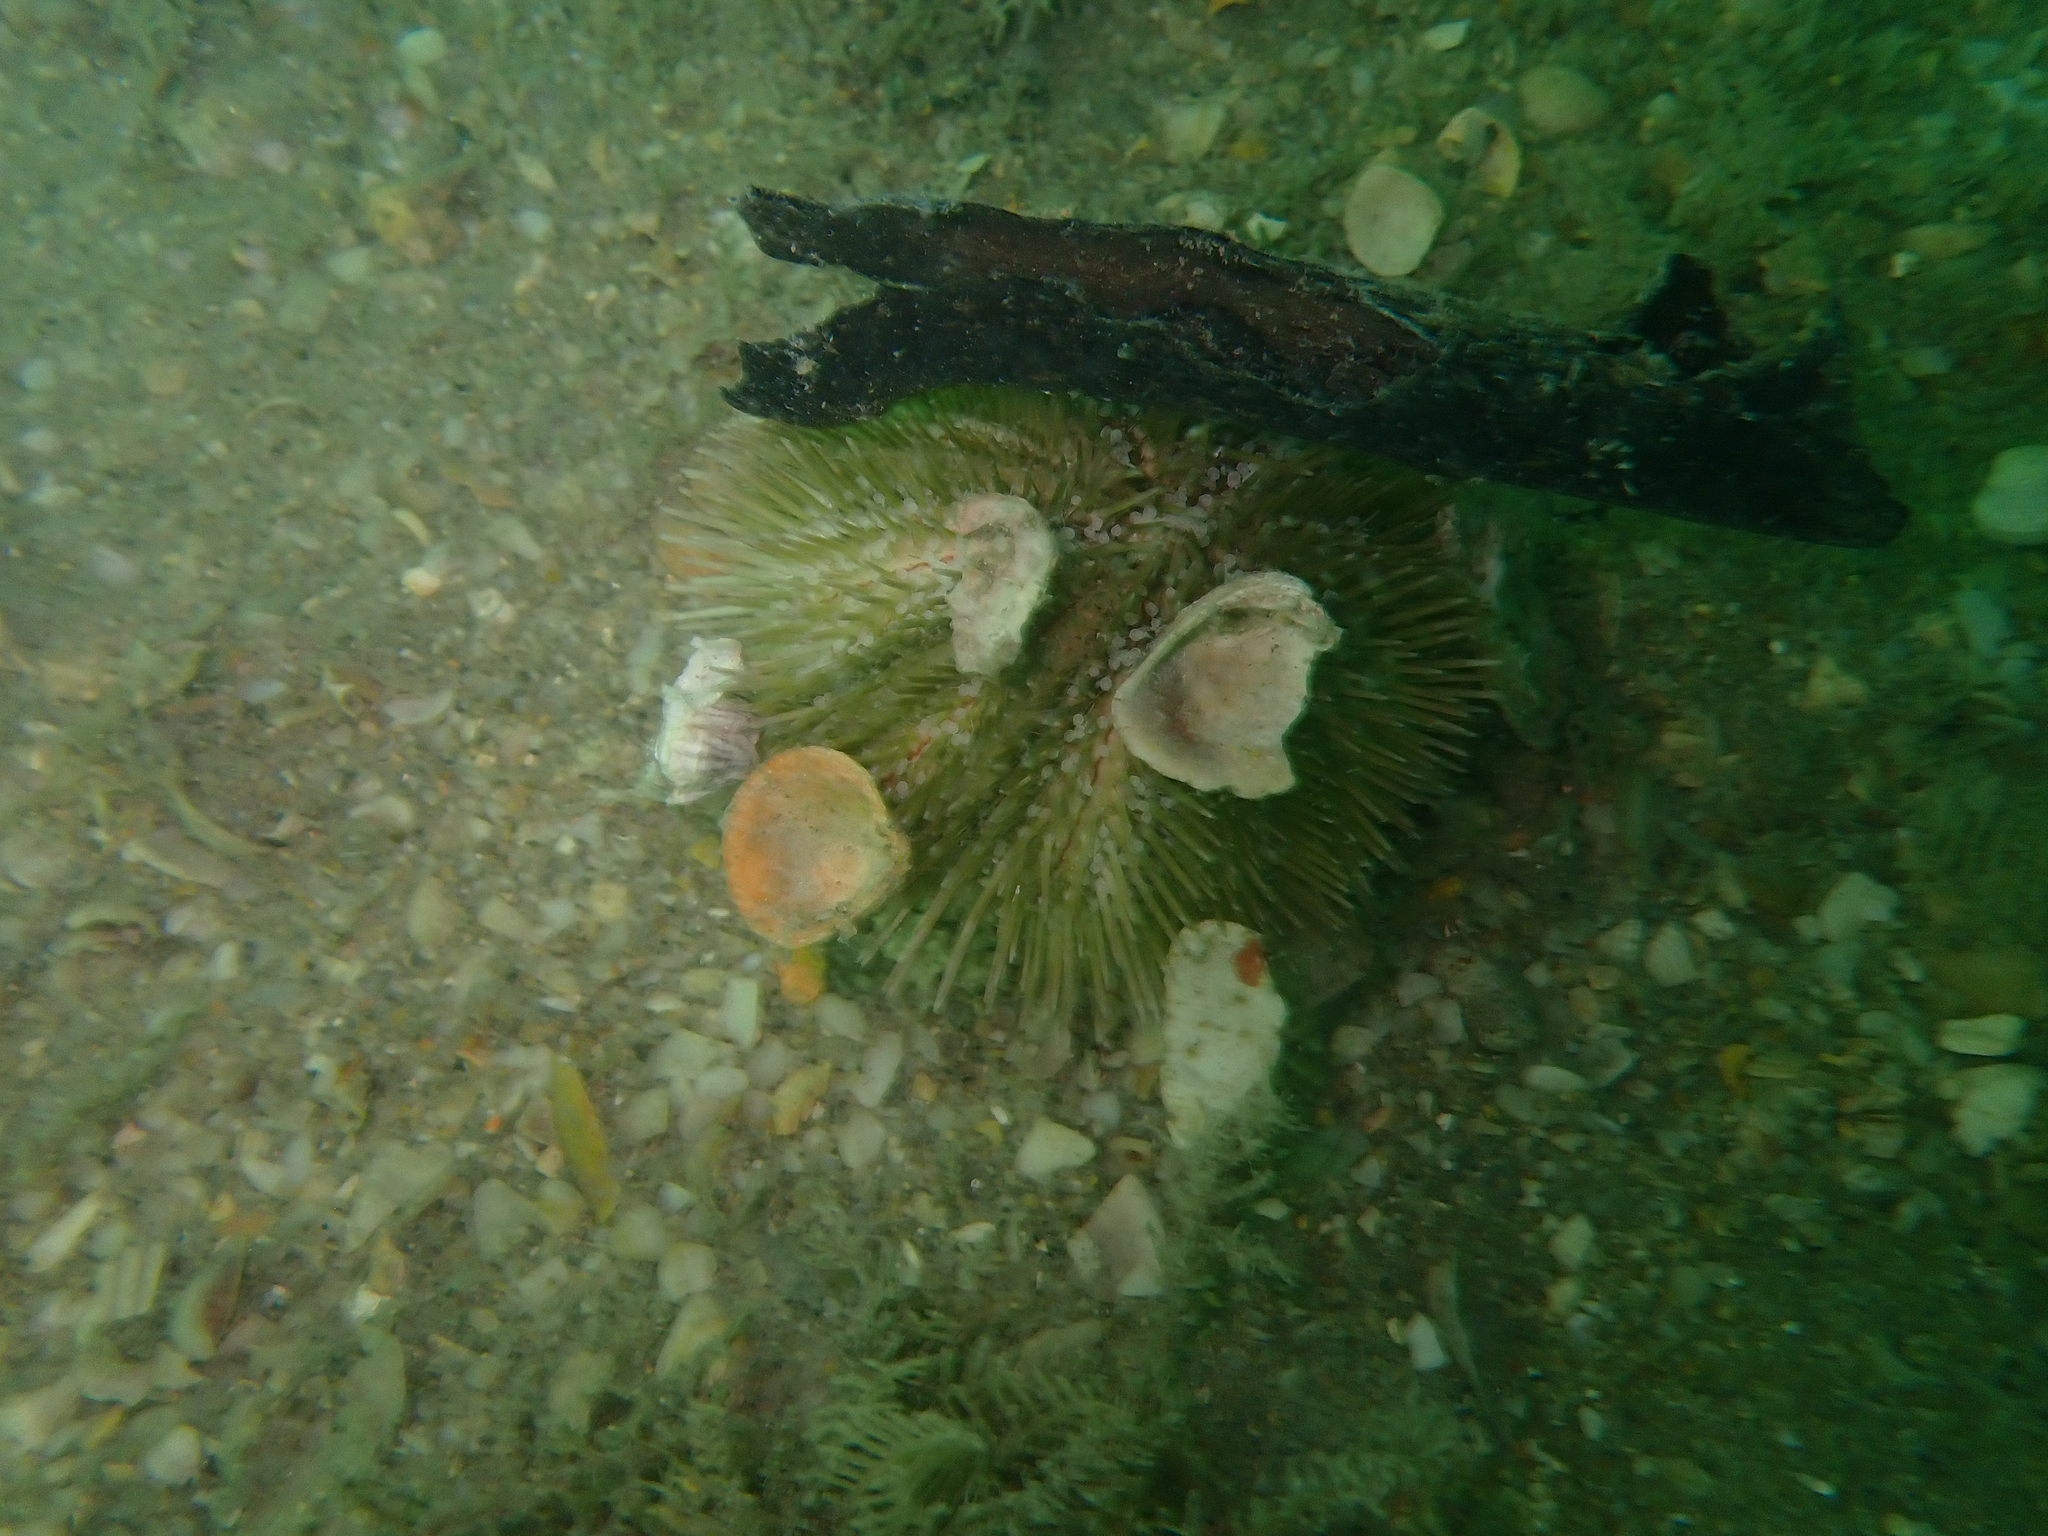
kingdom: Animalia
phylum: Echinodermata
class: Echinoidea
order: Camarodonta
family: Toxopneustidae
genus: Lytechinus
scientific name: Lytechinus variegatus
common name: Variegated urchin
